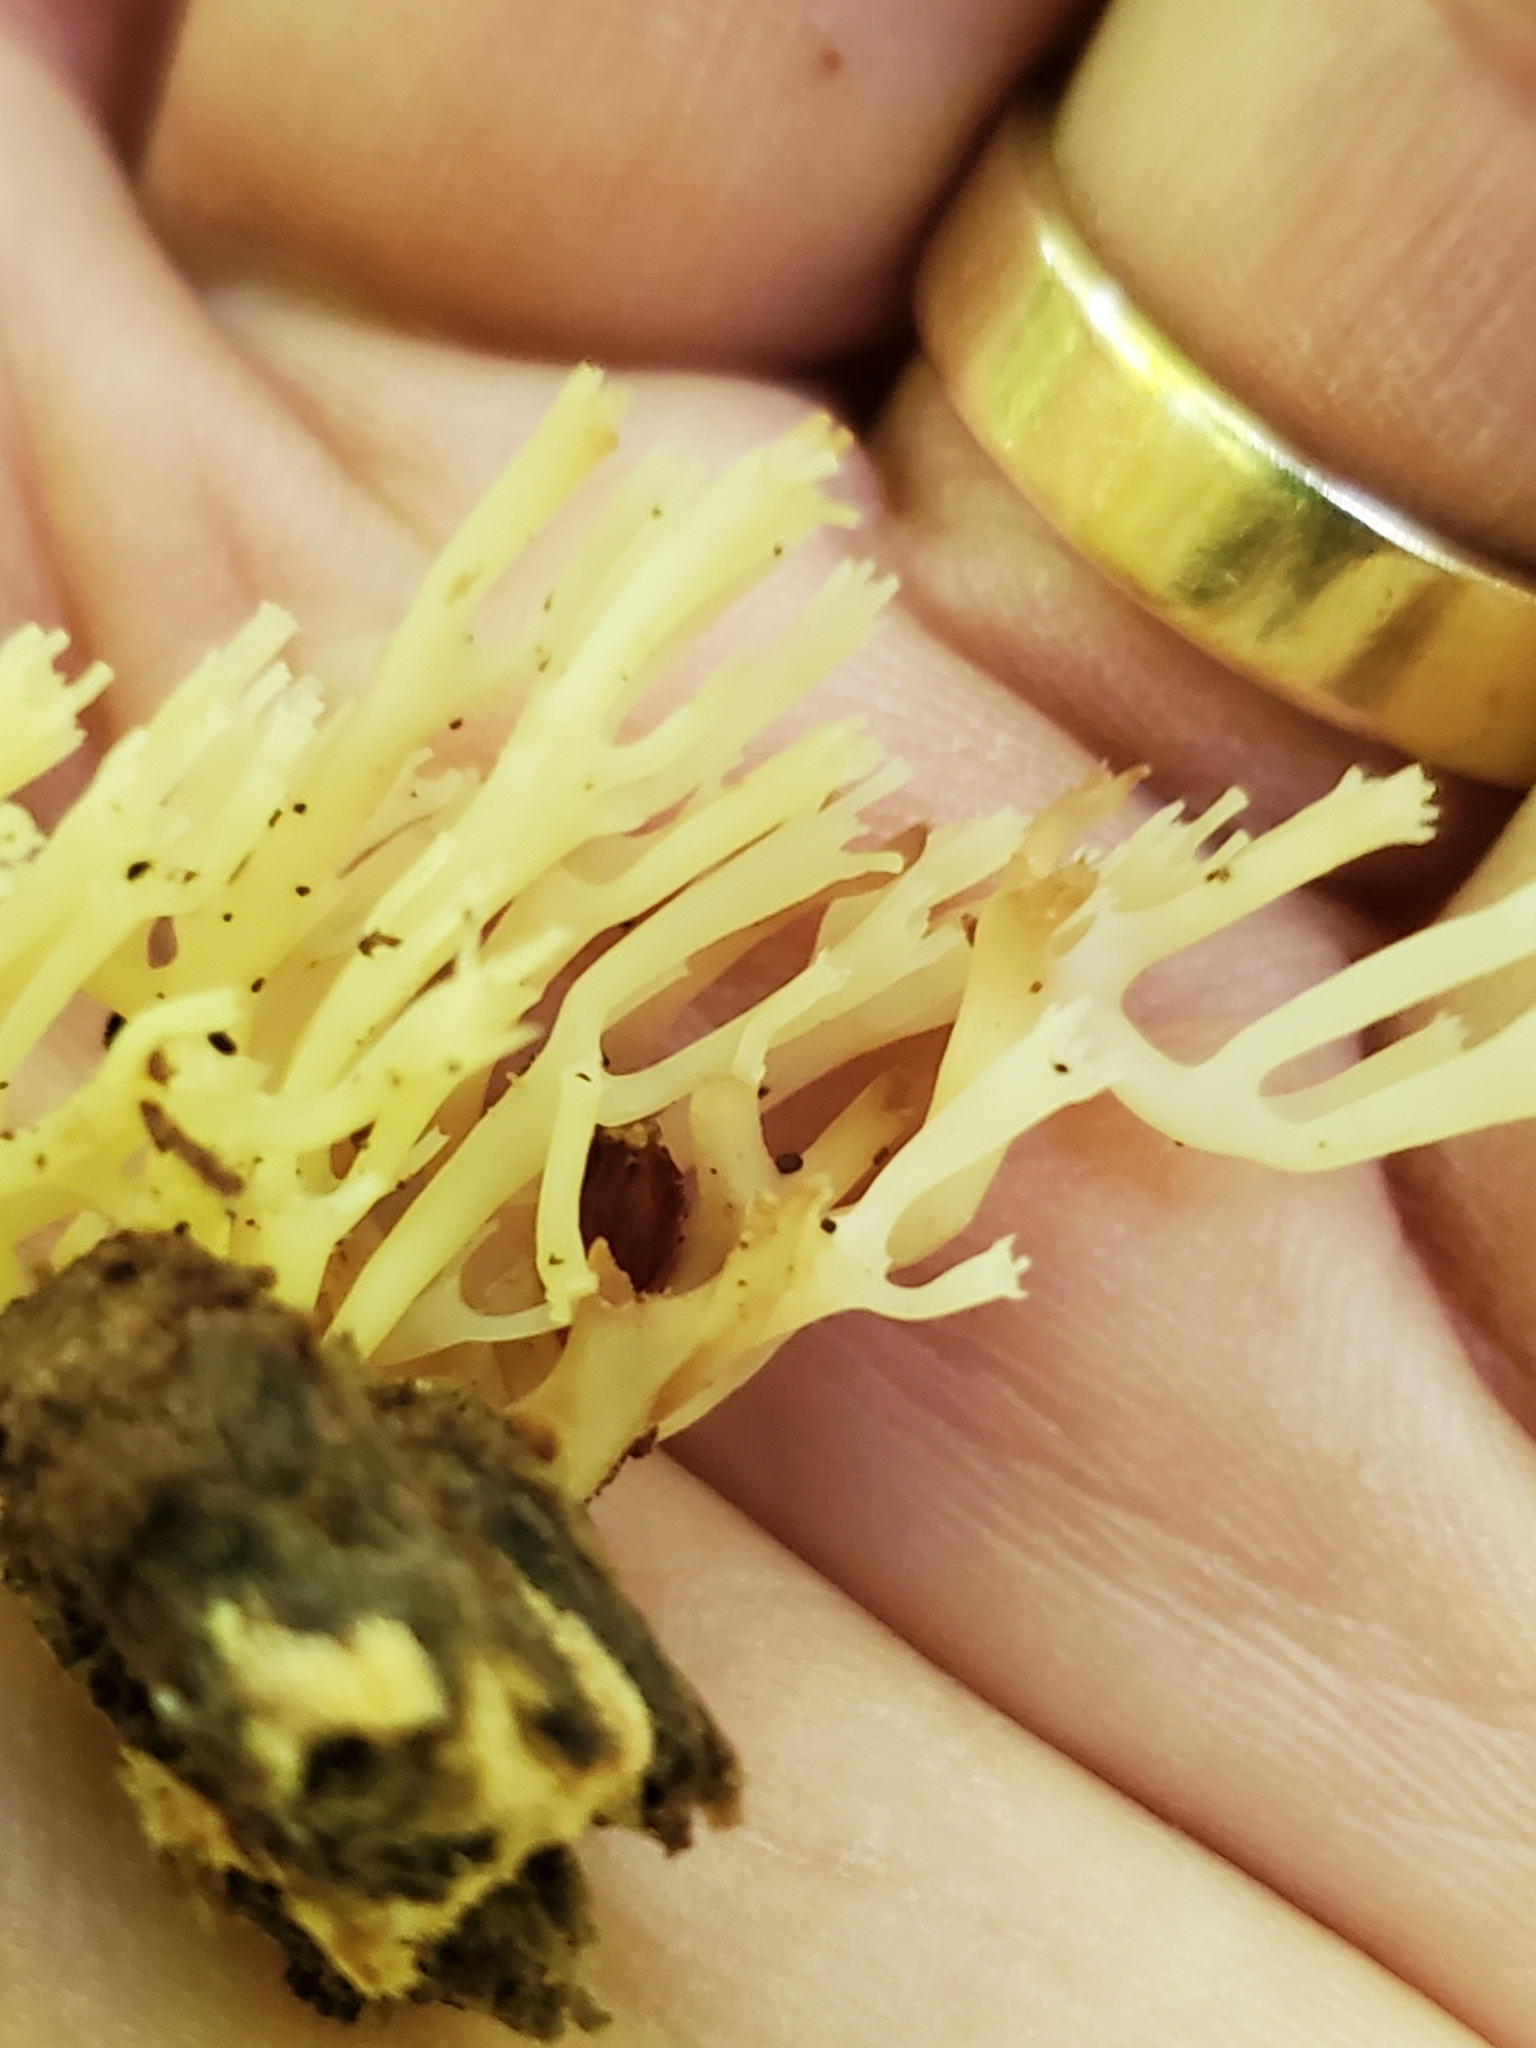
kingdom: Fungi
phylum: Basidiomycota
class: Agaricomycetes
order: Russulales
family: Auriscalpiaceae
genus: Artomyces
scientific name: Artomyces pyxidatus
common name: Crown-tipped coral fungus
